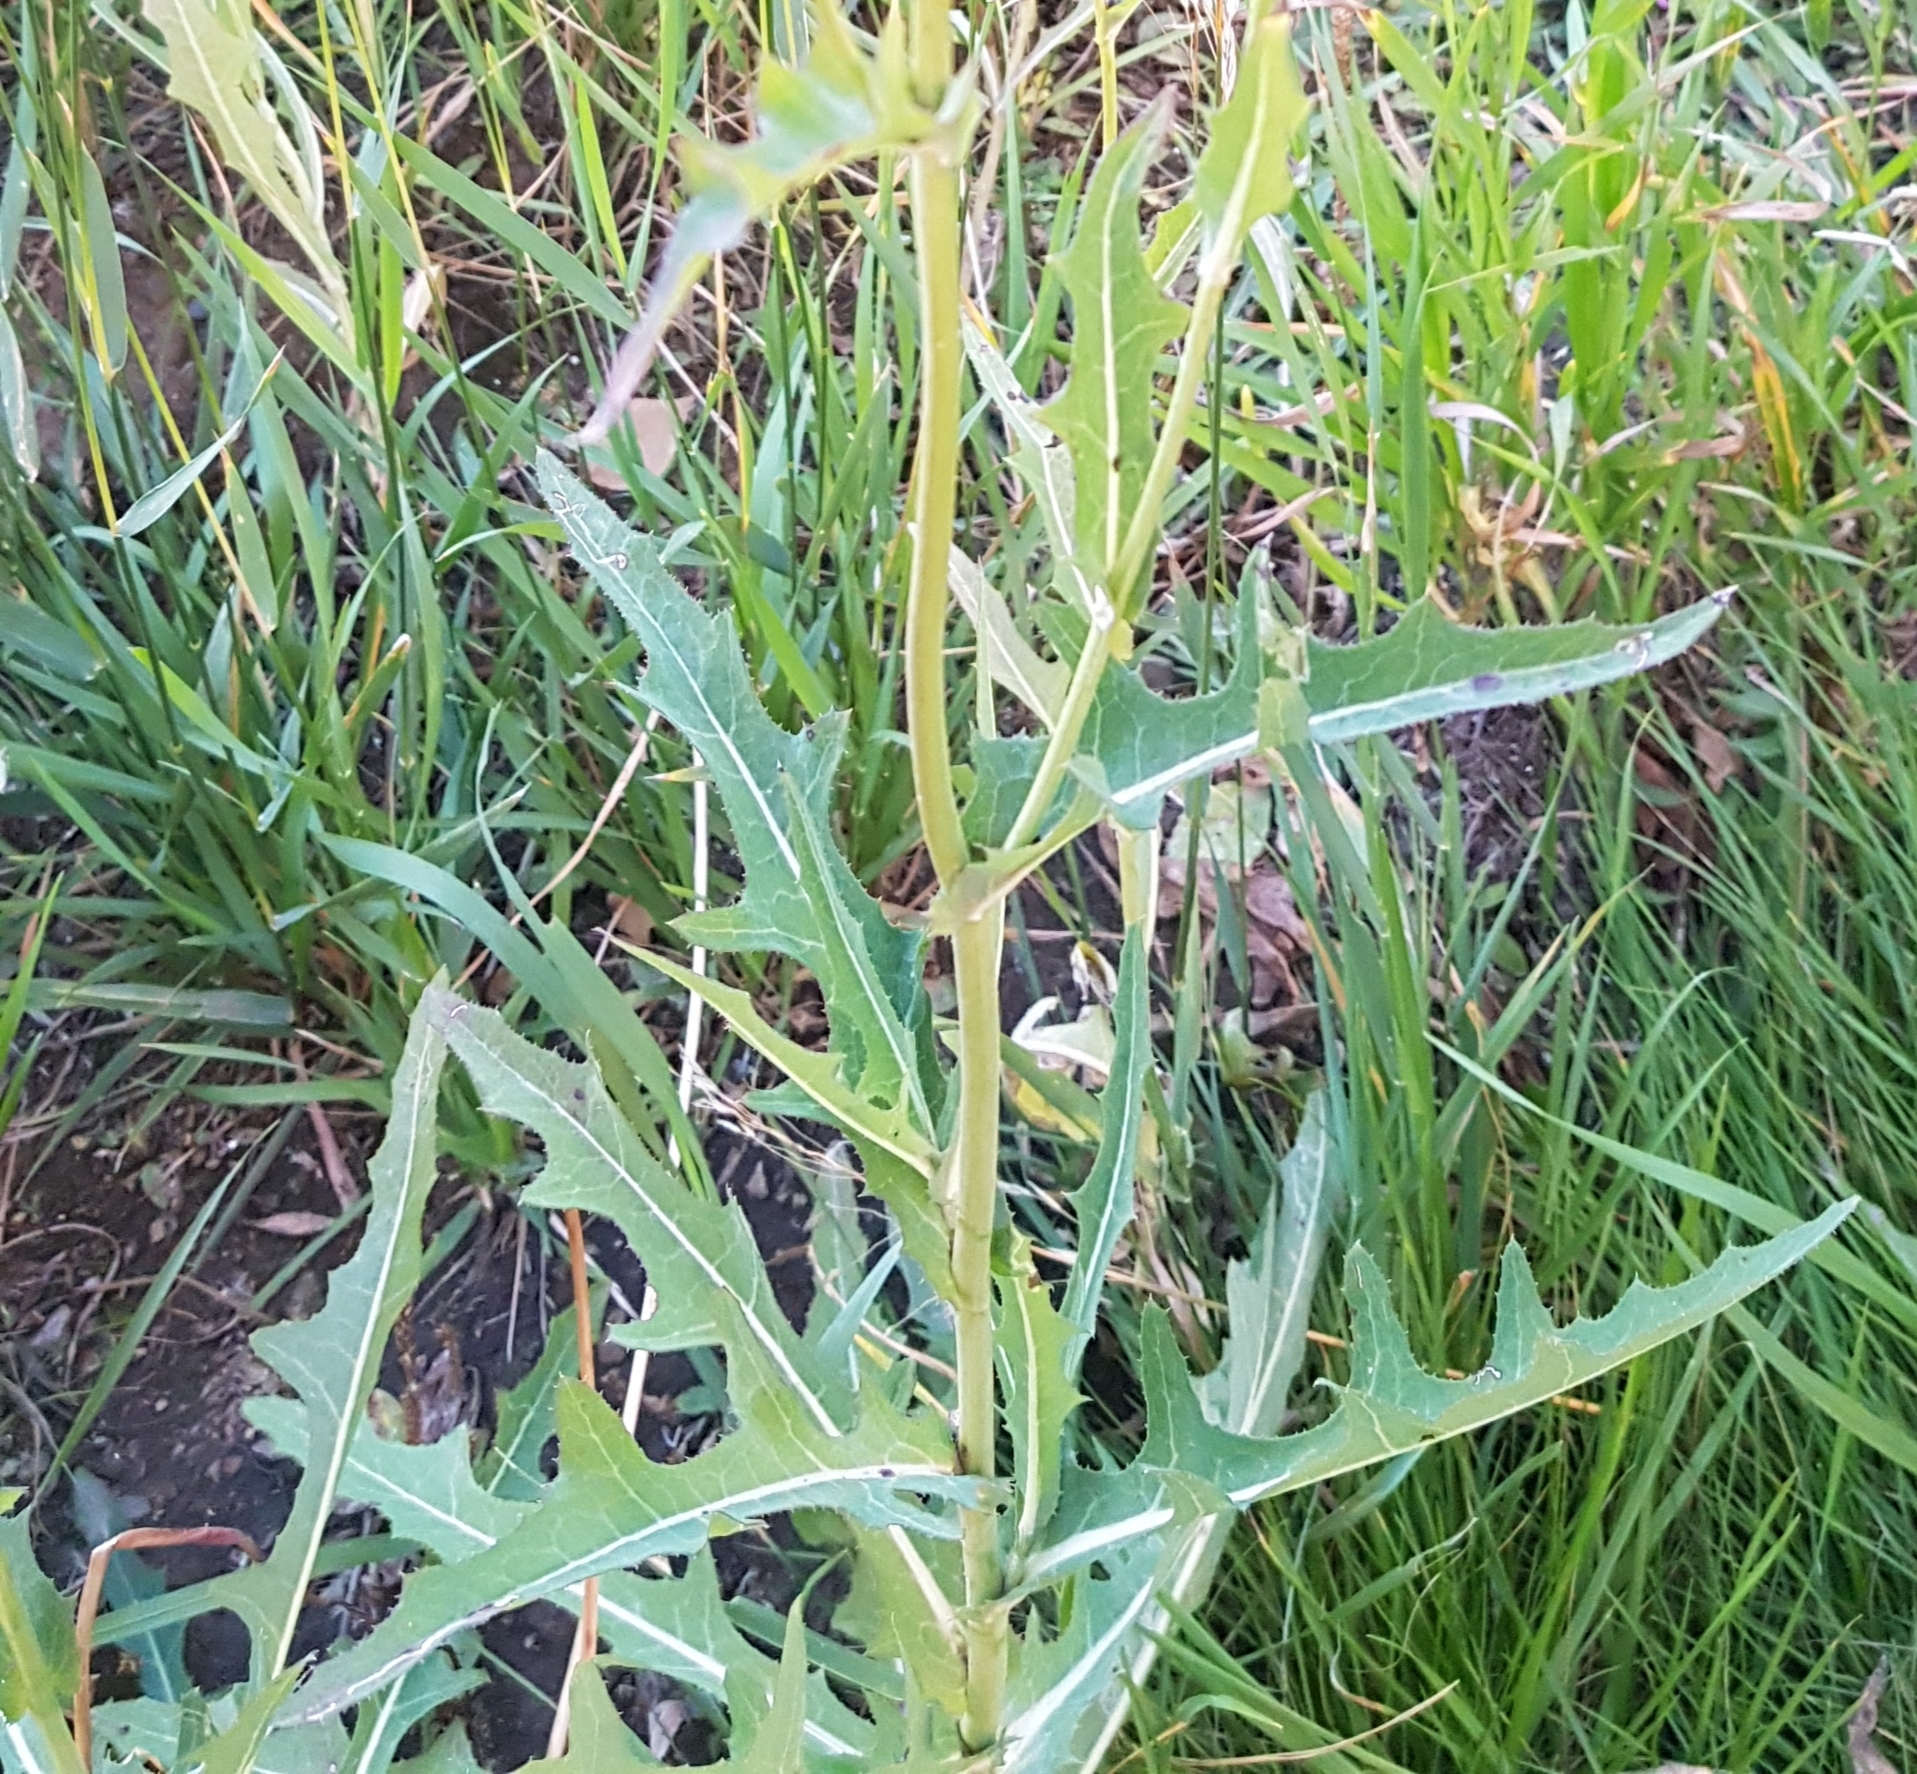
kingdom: Plantae
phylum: Tracheophyta
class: Magnoliopsida
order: Asterales
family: Asteraceae
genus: Sonchus
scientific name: Sonchus arvensis
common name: Perennial sow-thistle
